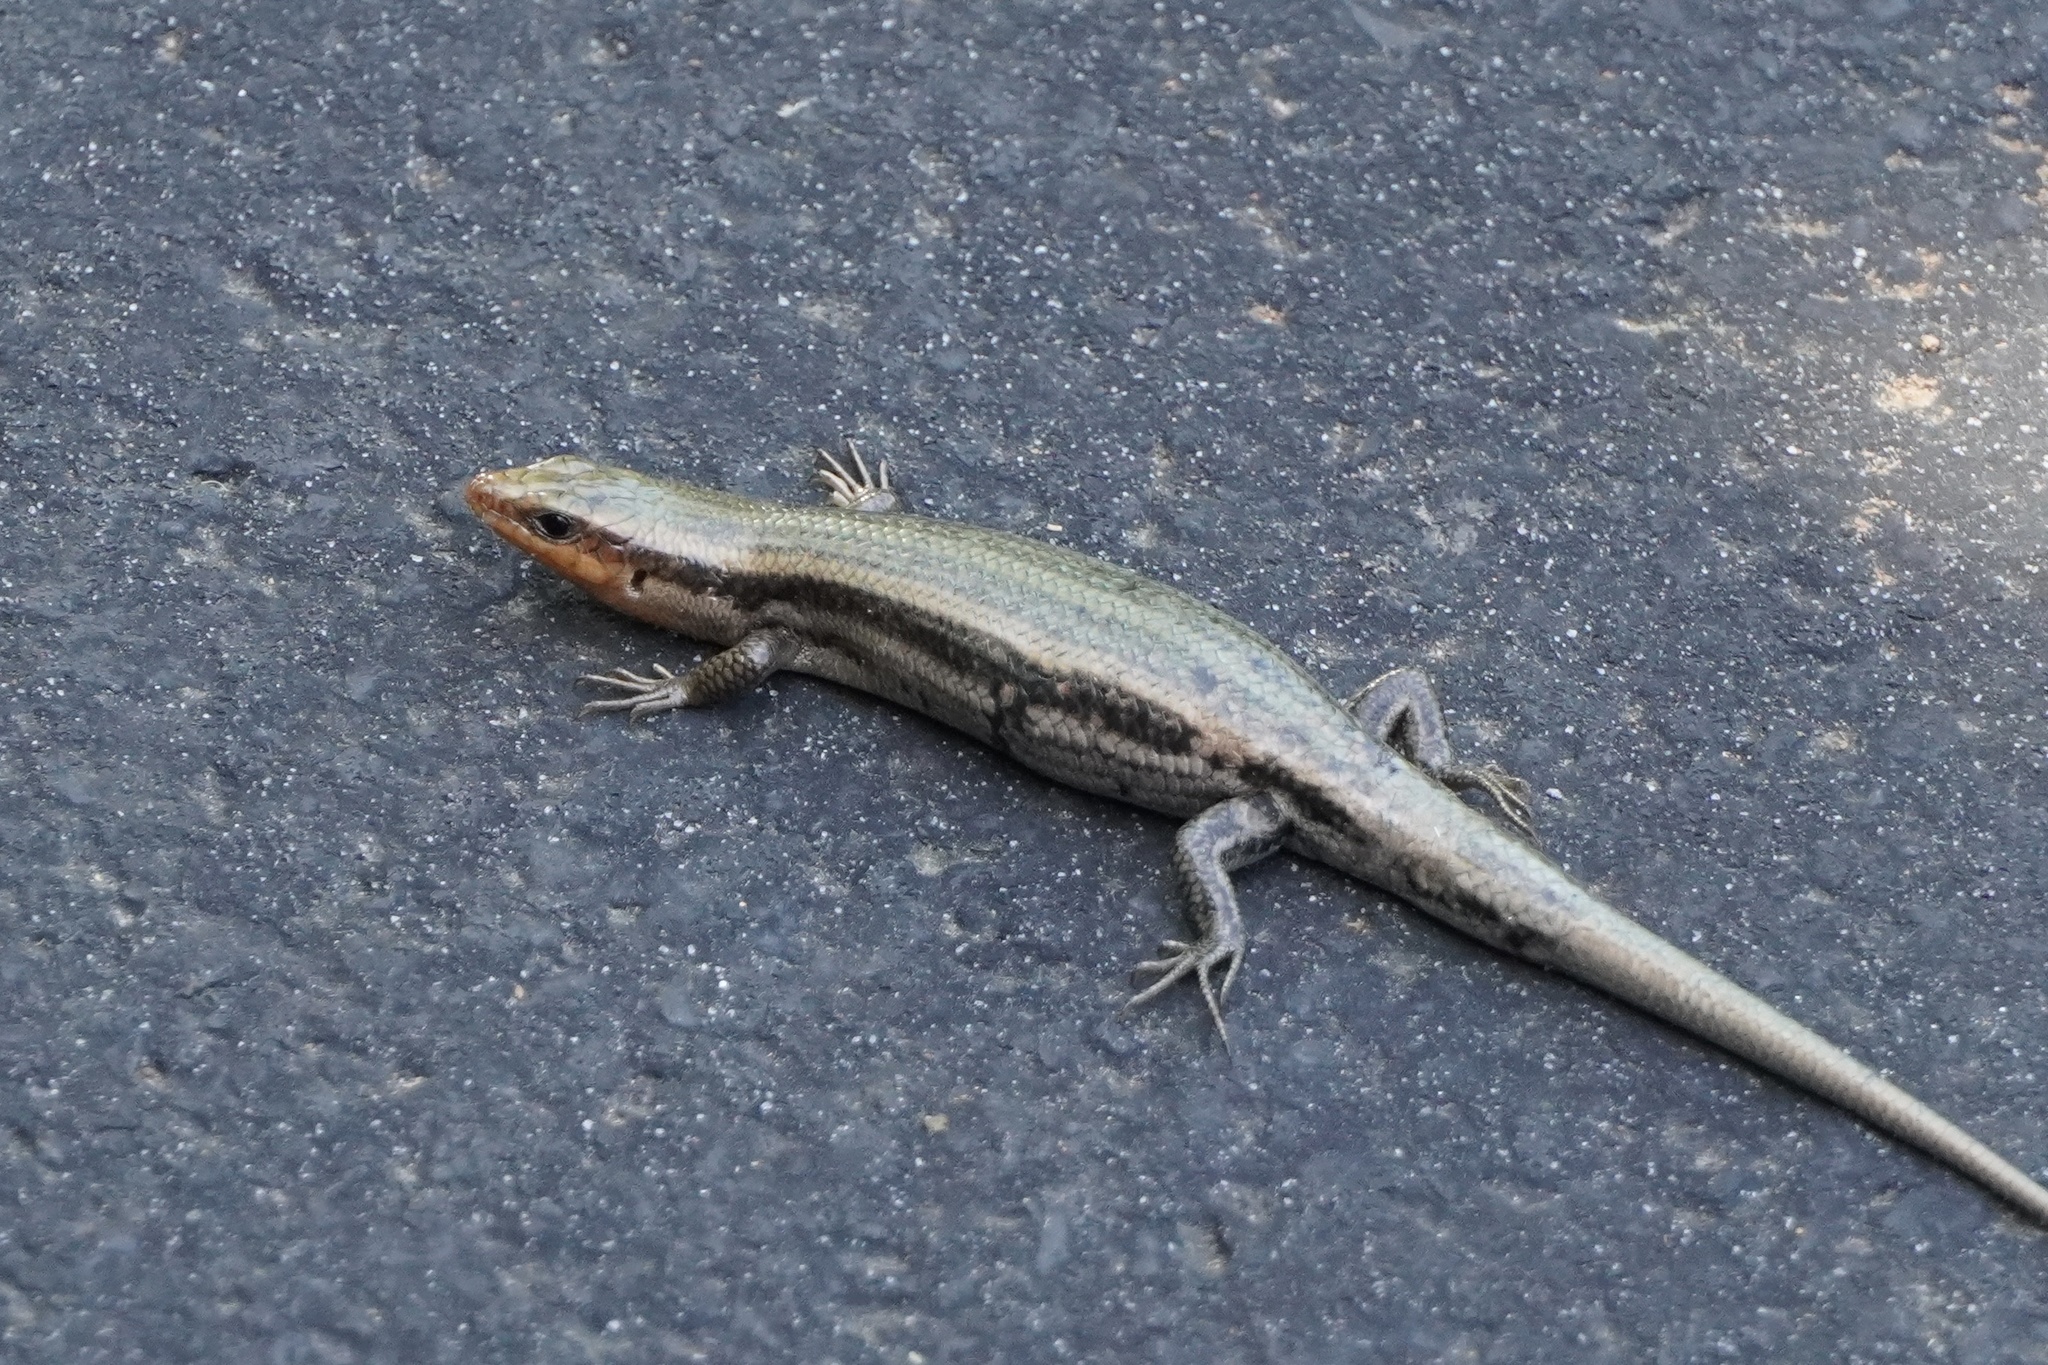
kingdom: Animalia
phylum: Chordata
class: Squamata
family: Scincidae
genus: Plestiodon
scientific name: Plestiodon fasciatus
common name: Five-lined skink
